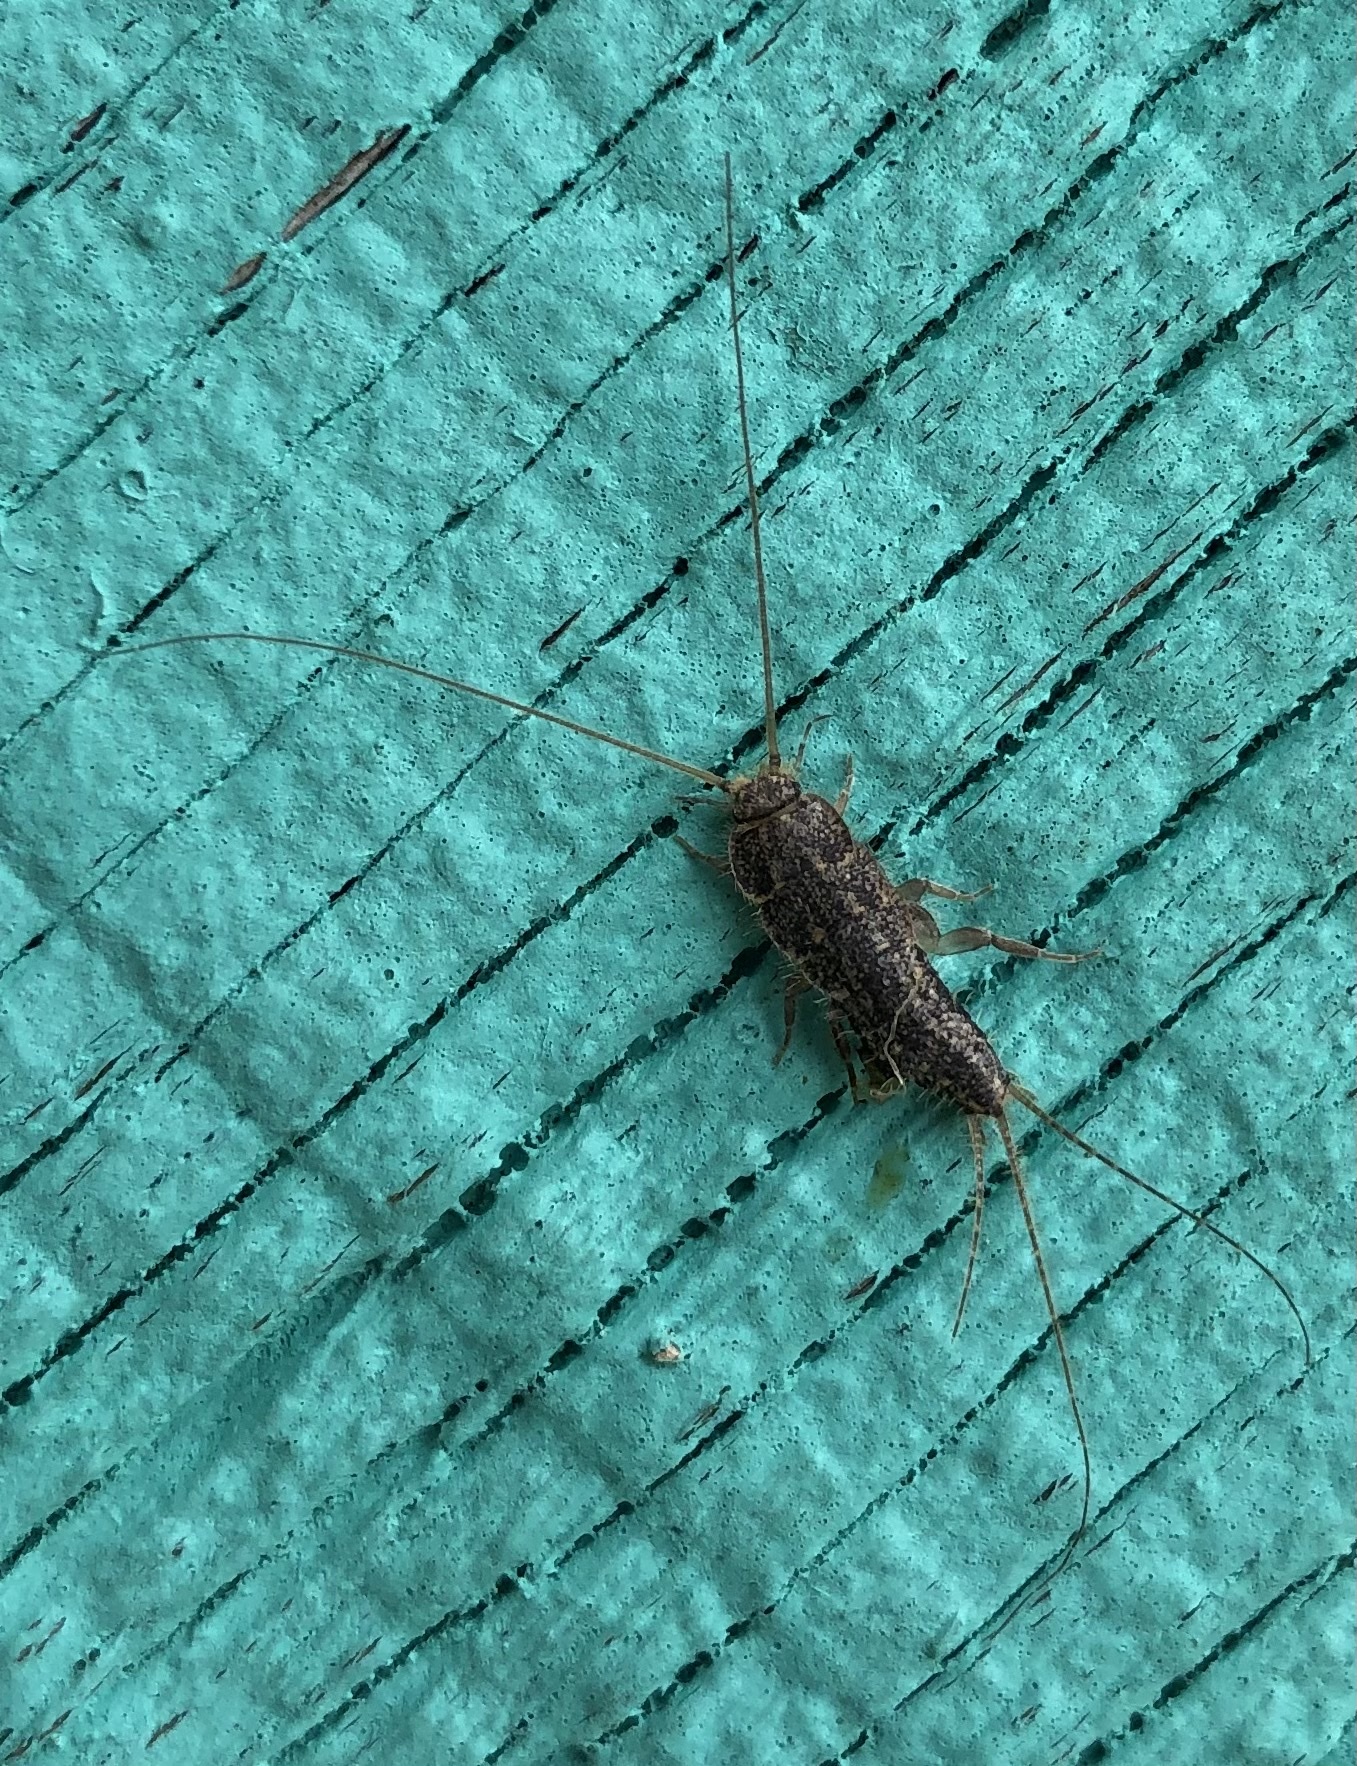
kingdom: Animalia
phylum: Arthropoda
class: Insecta
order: Zygentoma
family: Lepismatidae
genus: Ctenolepisma
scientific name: Ctenolepisma lineata
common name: Four-lined silverfish
